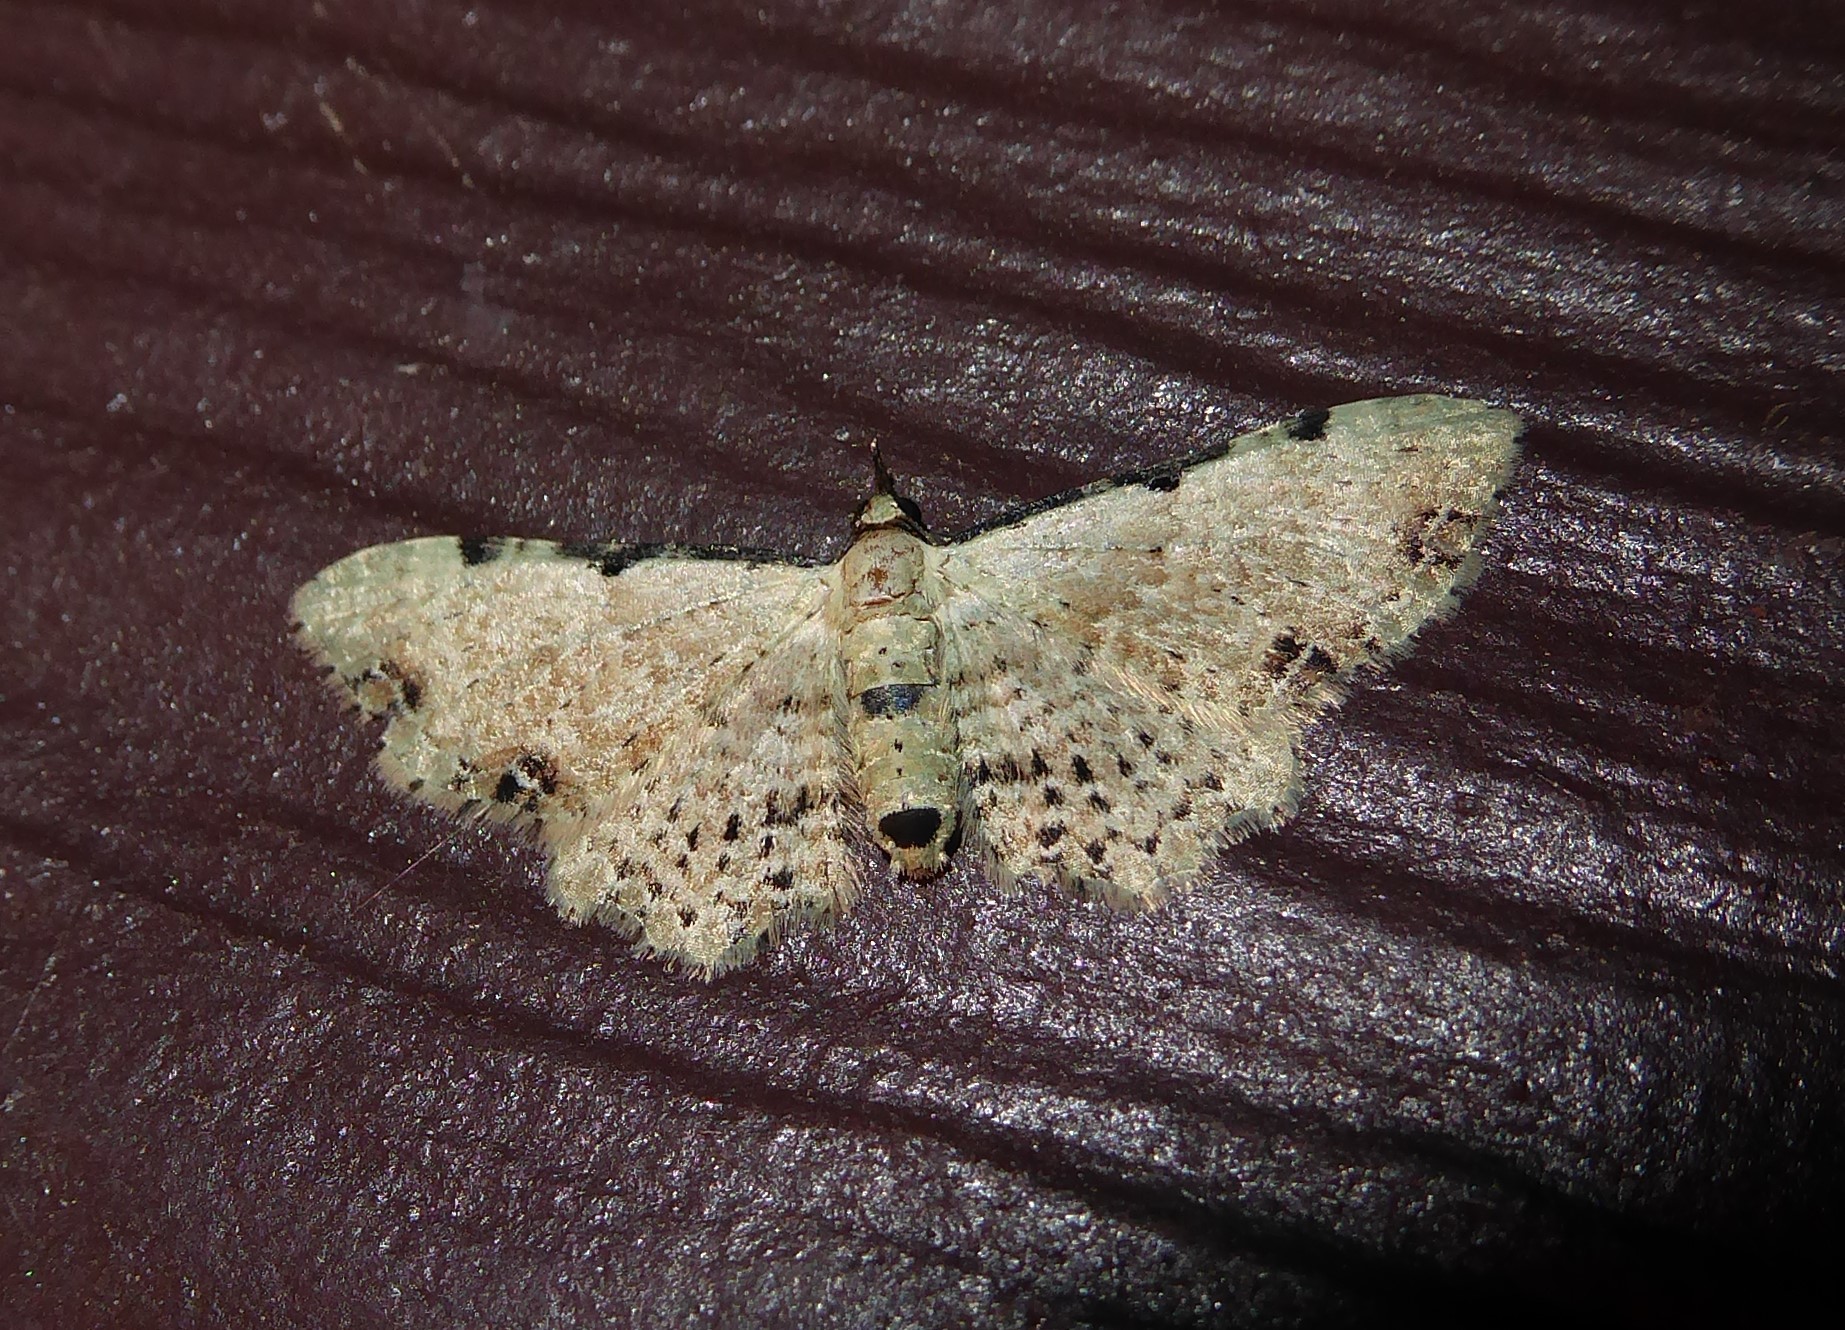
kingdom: Animalia
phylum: Arthropoda
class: Insecta
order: Lepidoptera
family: Geometridae
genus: Pasiphila
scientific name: Pasiphila fumipalpata
